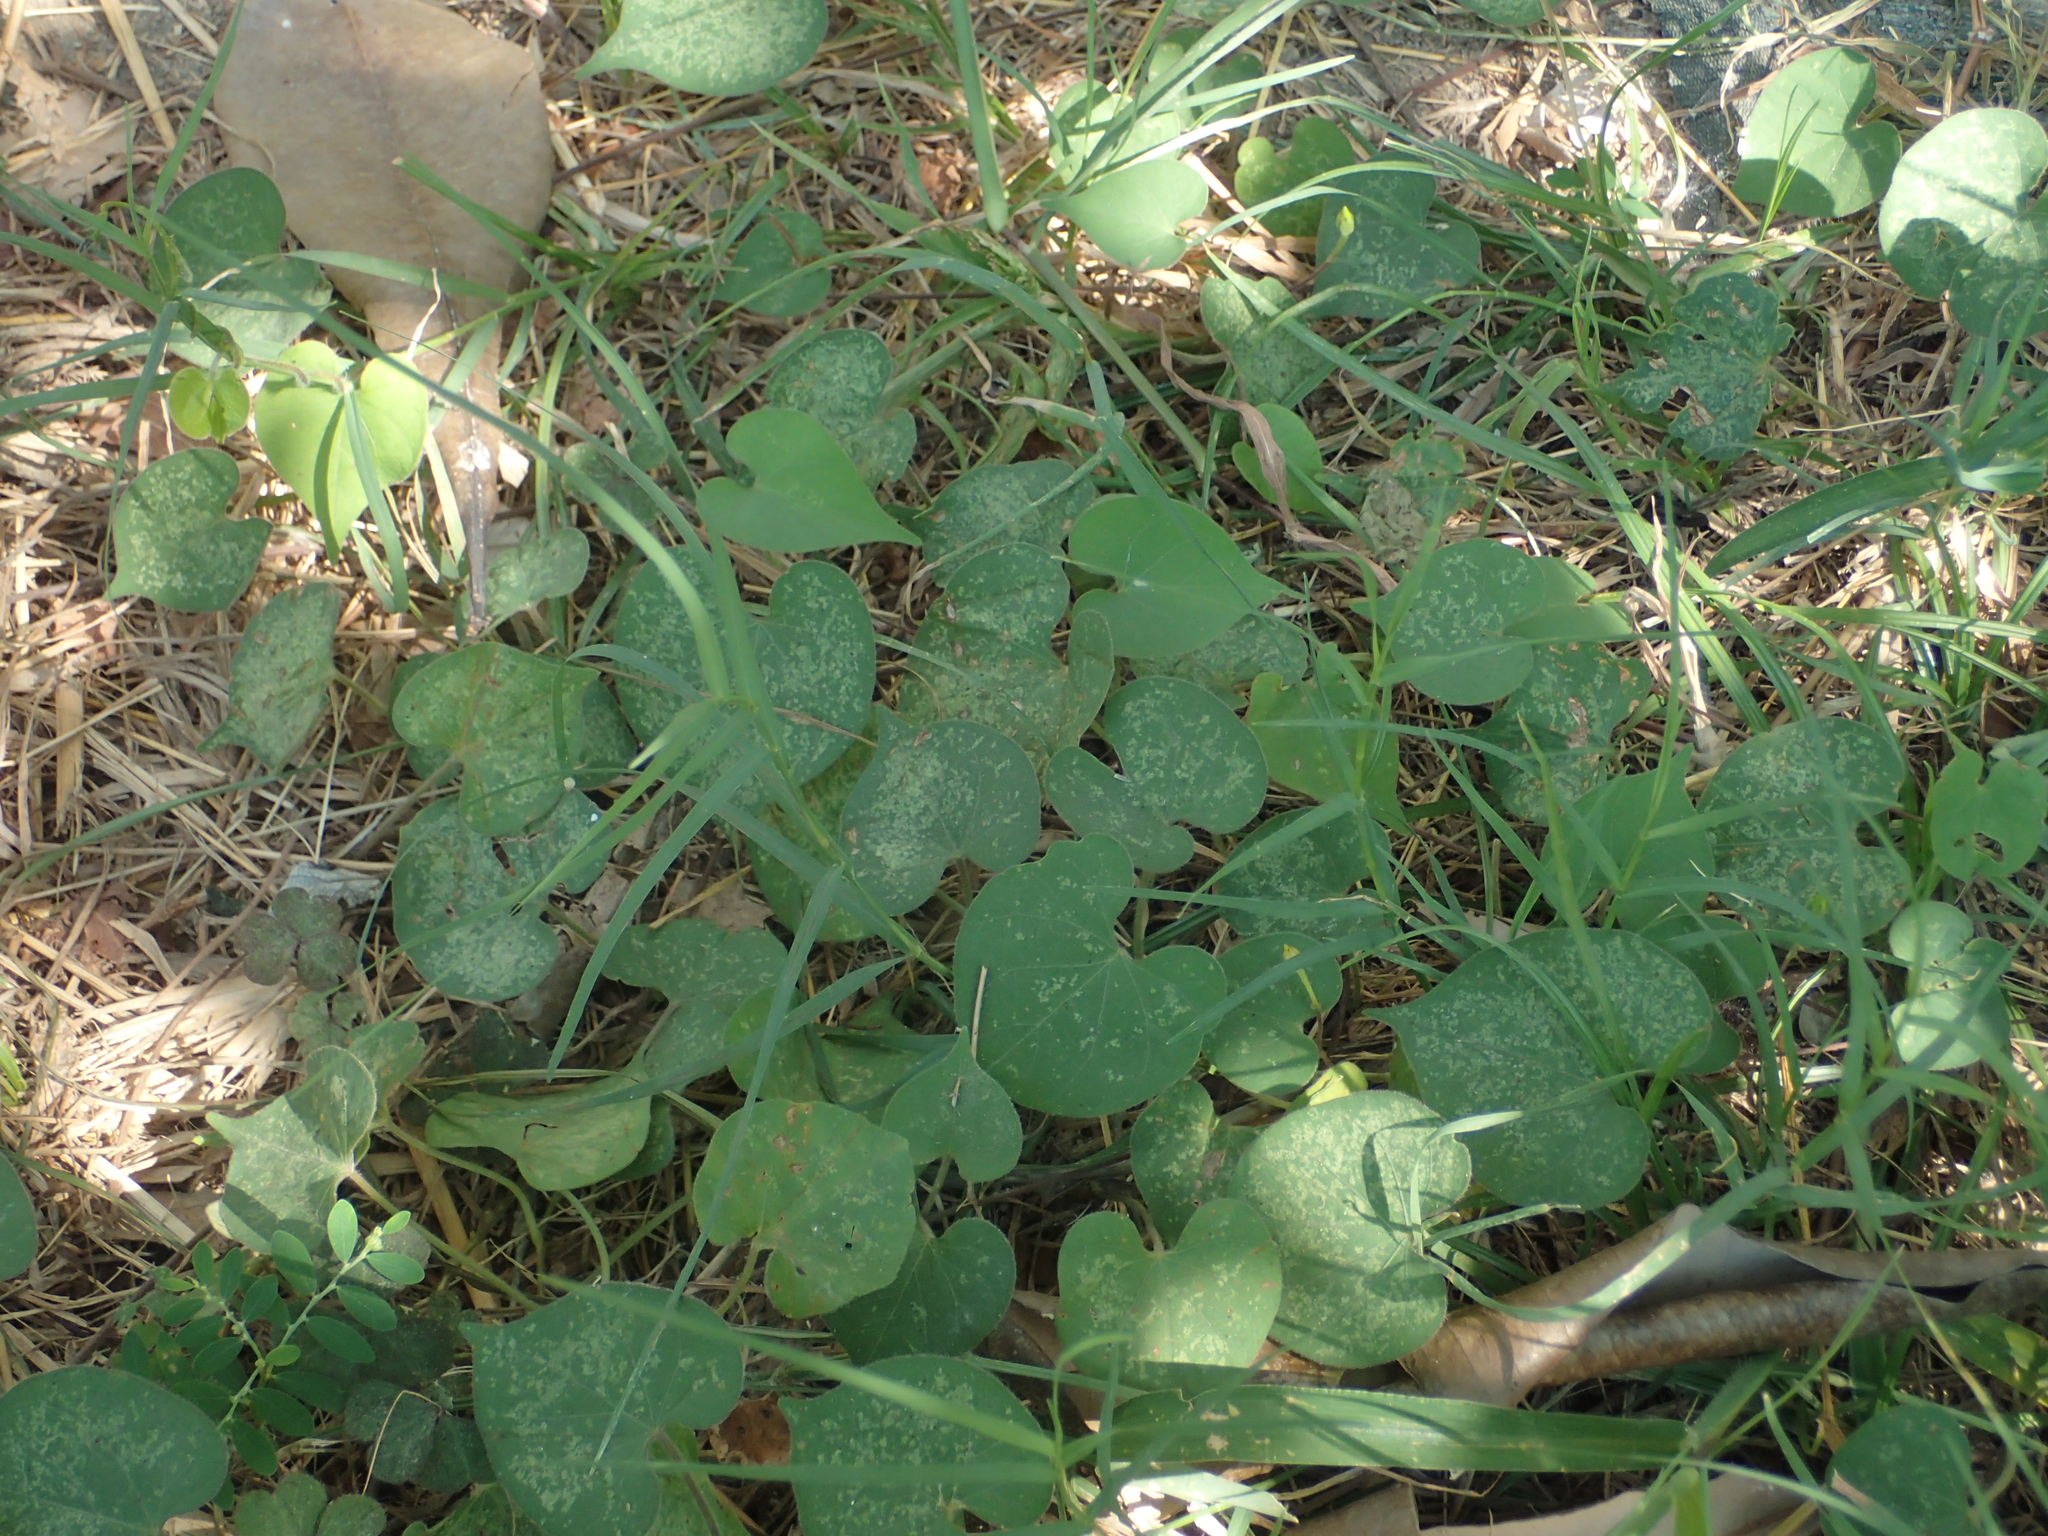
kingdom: Plantae
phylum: Tracheophyta
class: Magnoliopsida
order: Solanales
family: Convolvulaceae
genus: Ipomoea
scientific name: Ipomoea obscura
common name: Obscure morning-glory
